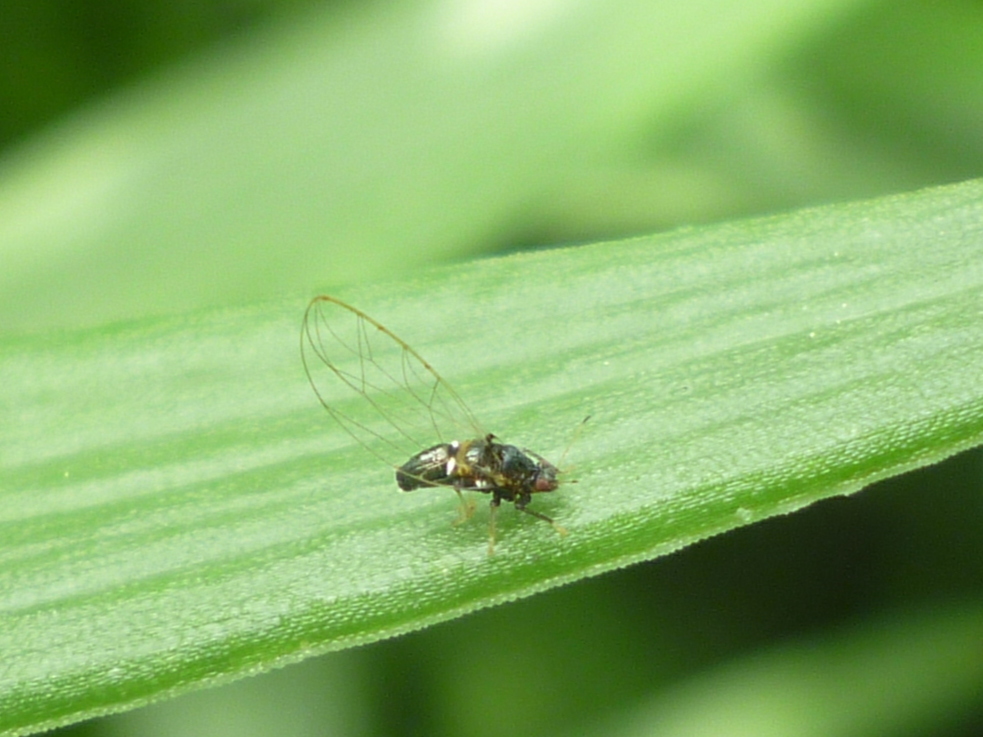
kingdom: Animalia
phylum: Arthropoda
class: Insecta
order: Hemiptera
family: Triozidae
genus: Baeoalitriozus
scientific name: Baeoalitriozus diospyri
